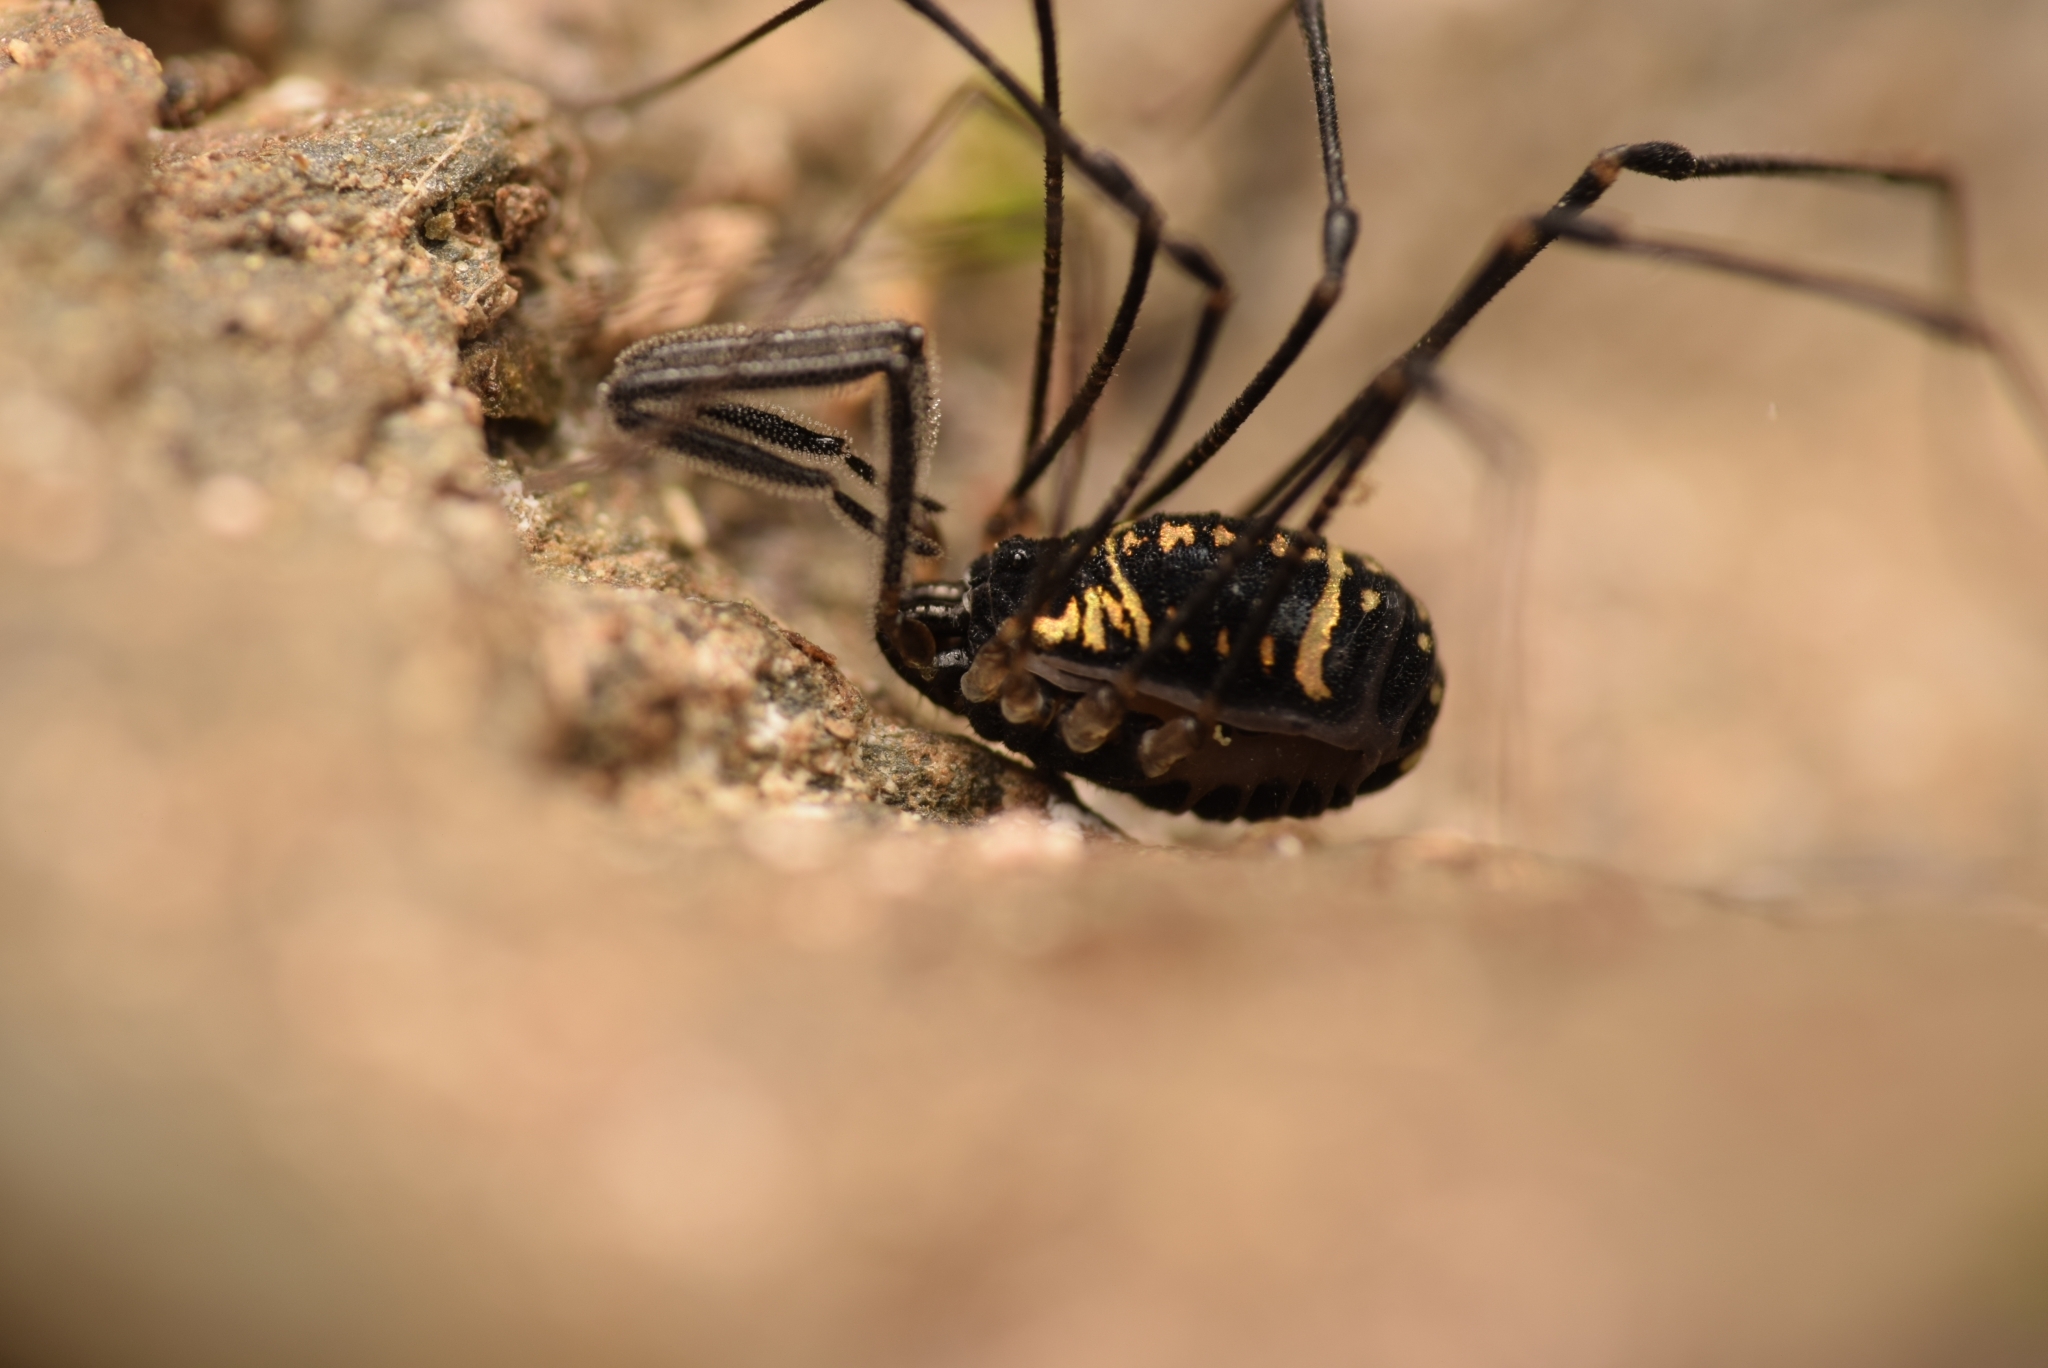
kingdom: Animalia
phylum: Arthropoda
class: Arachnida
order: Opiliones
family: Nemastomatidae
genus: Mitostoma
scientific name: Mitostoma pyrenaeum
